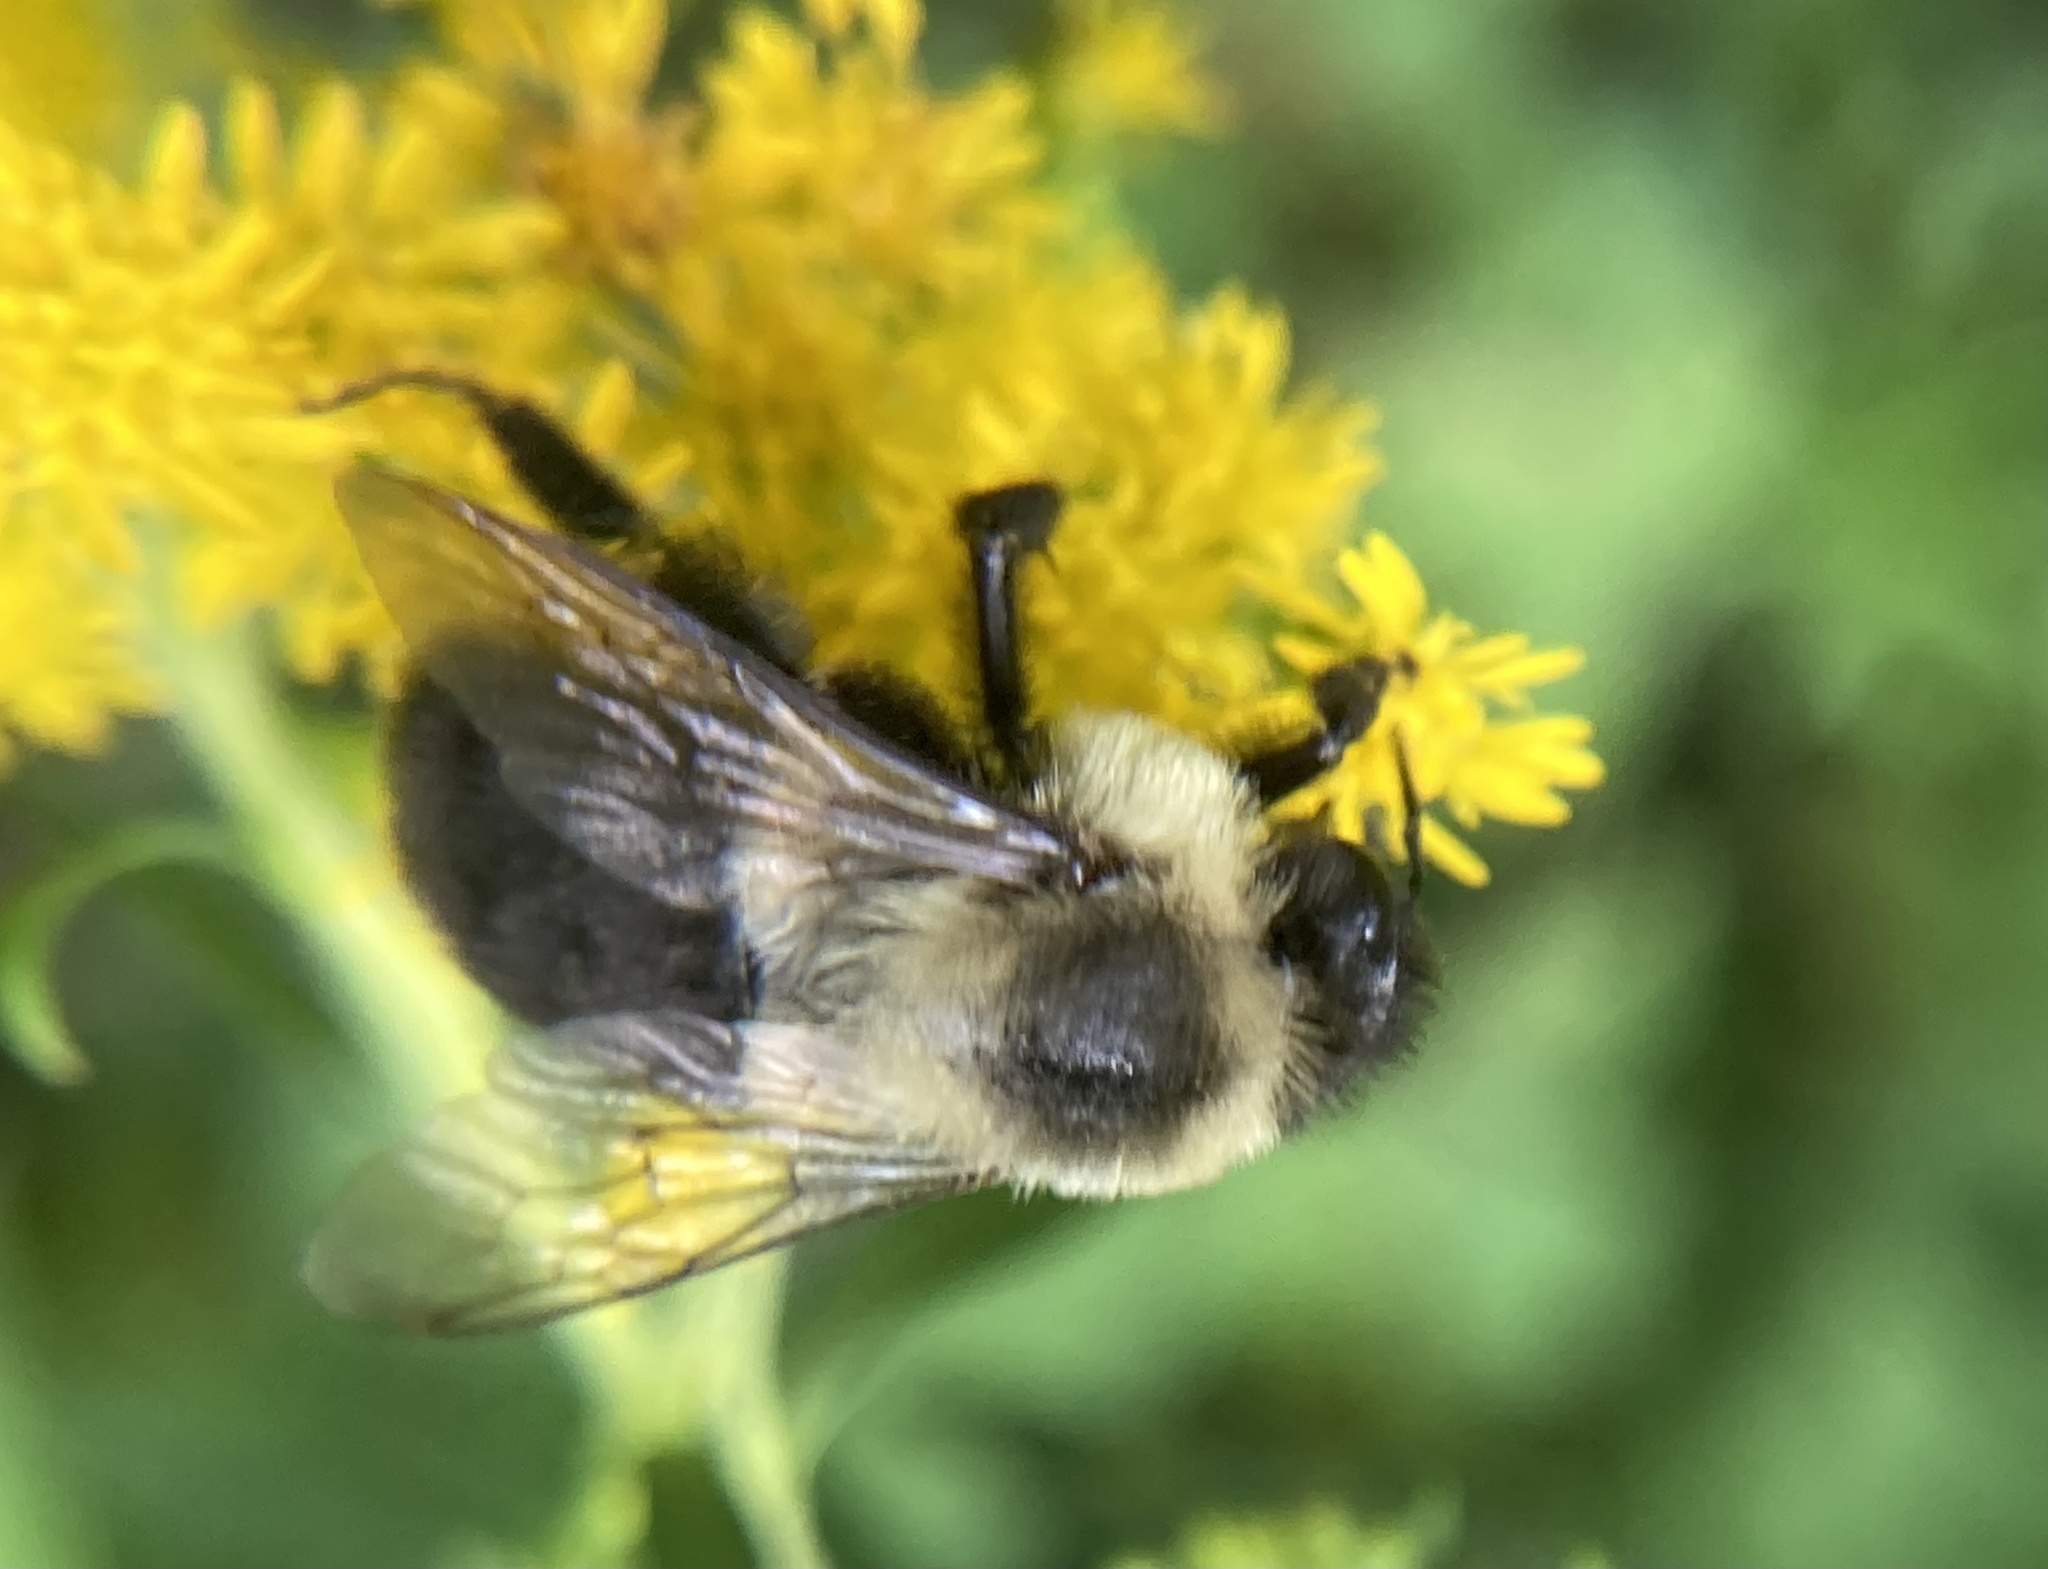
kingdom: Animalia
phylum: Arthropoda
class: Insecta
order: Hymenoptera
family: Apidae
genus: Bombus
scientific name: Bombus impatiens
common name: Common eastern bumble bee
